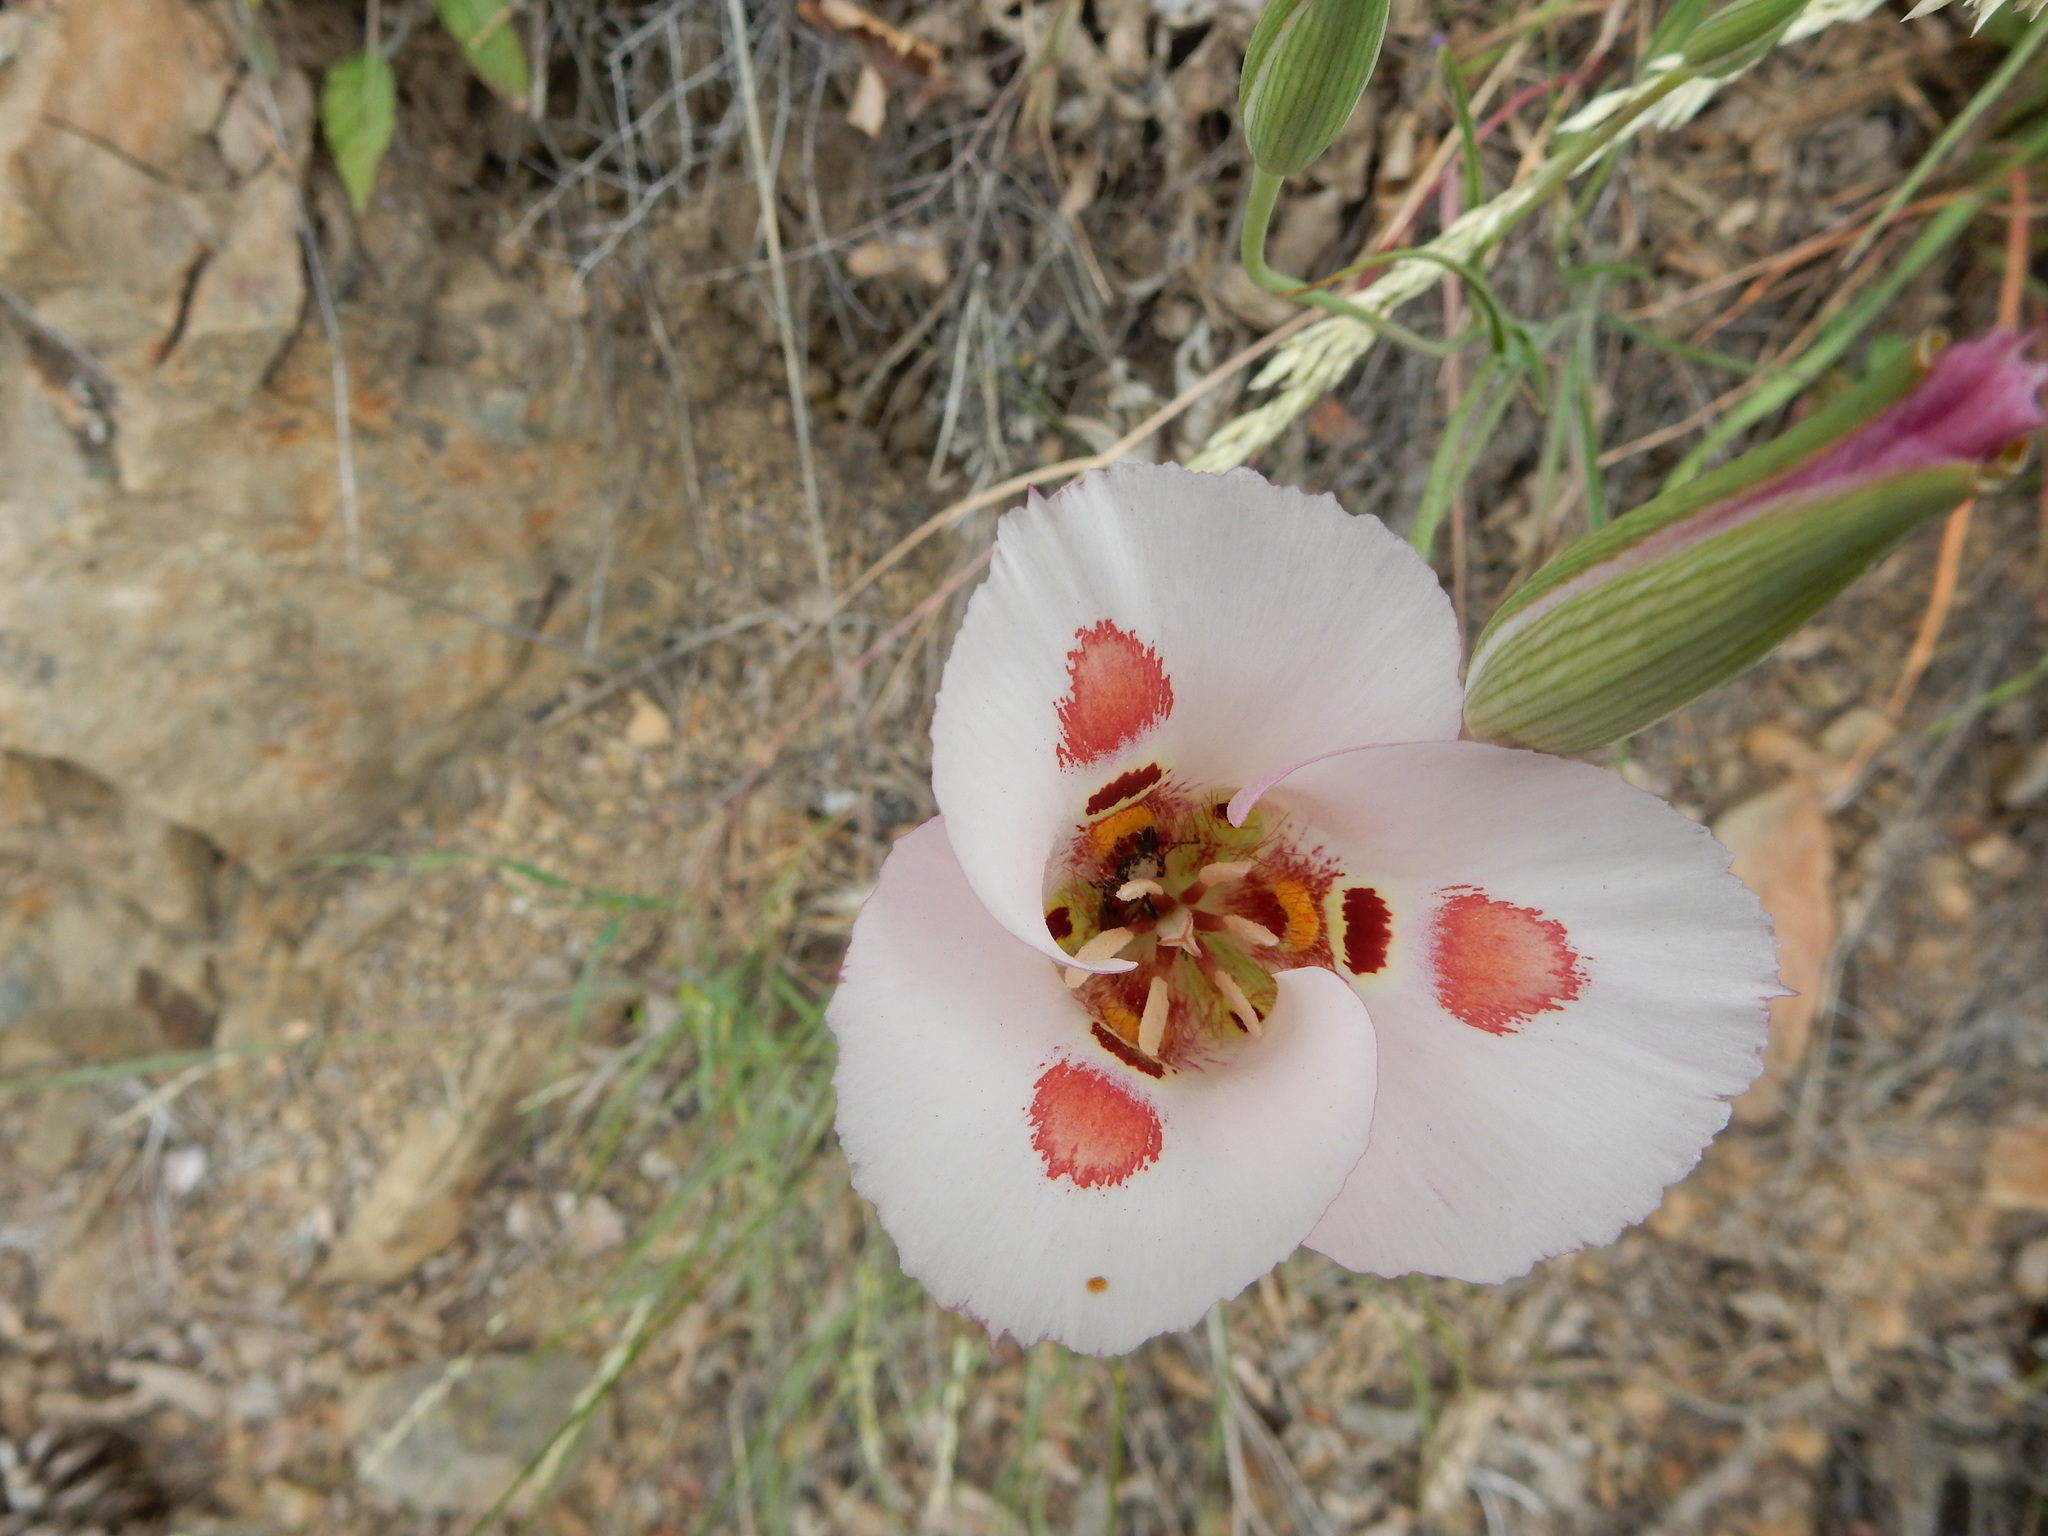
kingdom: Plantae
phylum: Tracheophyta
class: Liliopsida
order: Liliales
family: Liliaceae
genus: Calochortus
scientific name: Calochortus venustus
